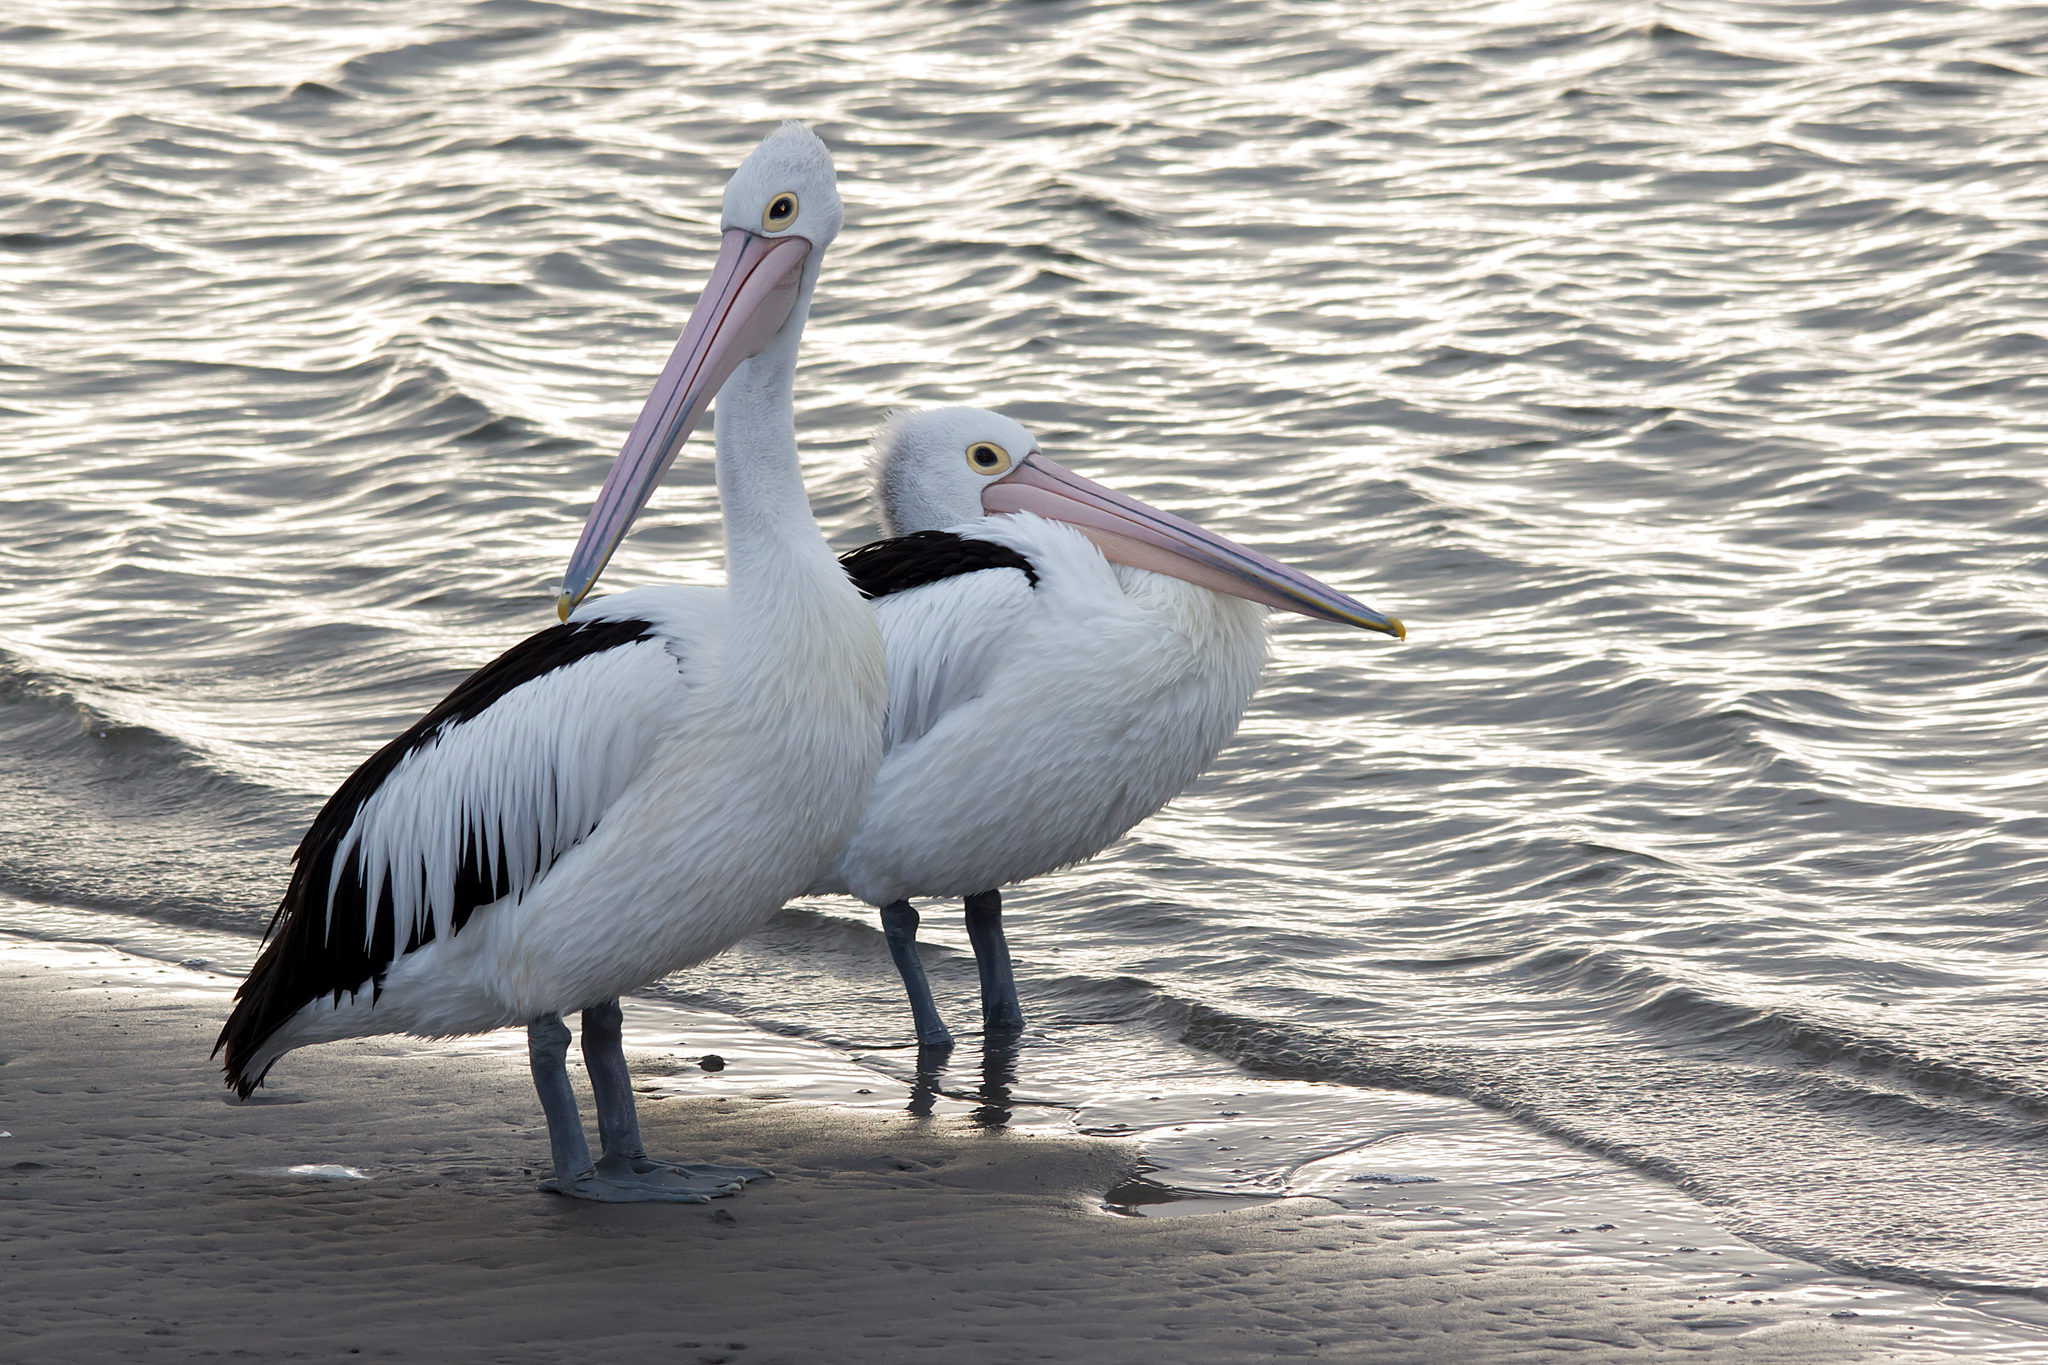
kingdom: Animalia
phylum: Chordata
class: Aves
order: Pelecaniformes
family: Pelecanidae
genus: Pelecanus
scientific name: Pelecanus conspicillatus
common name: Australian pelican
